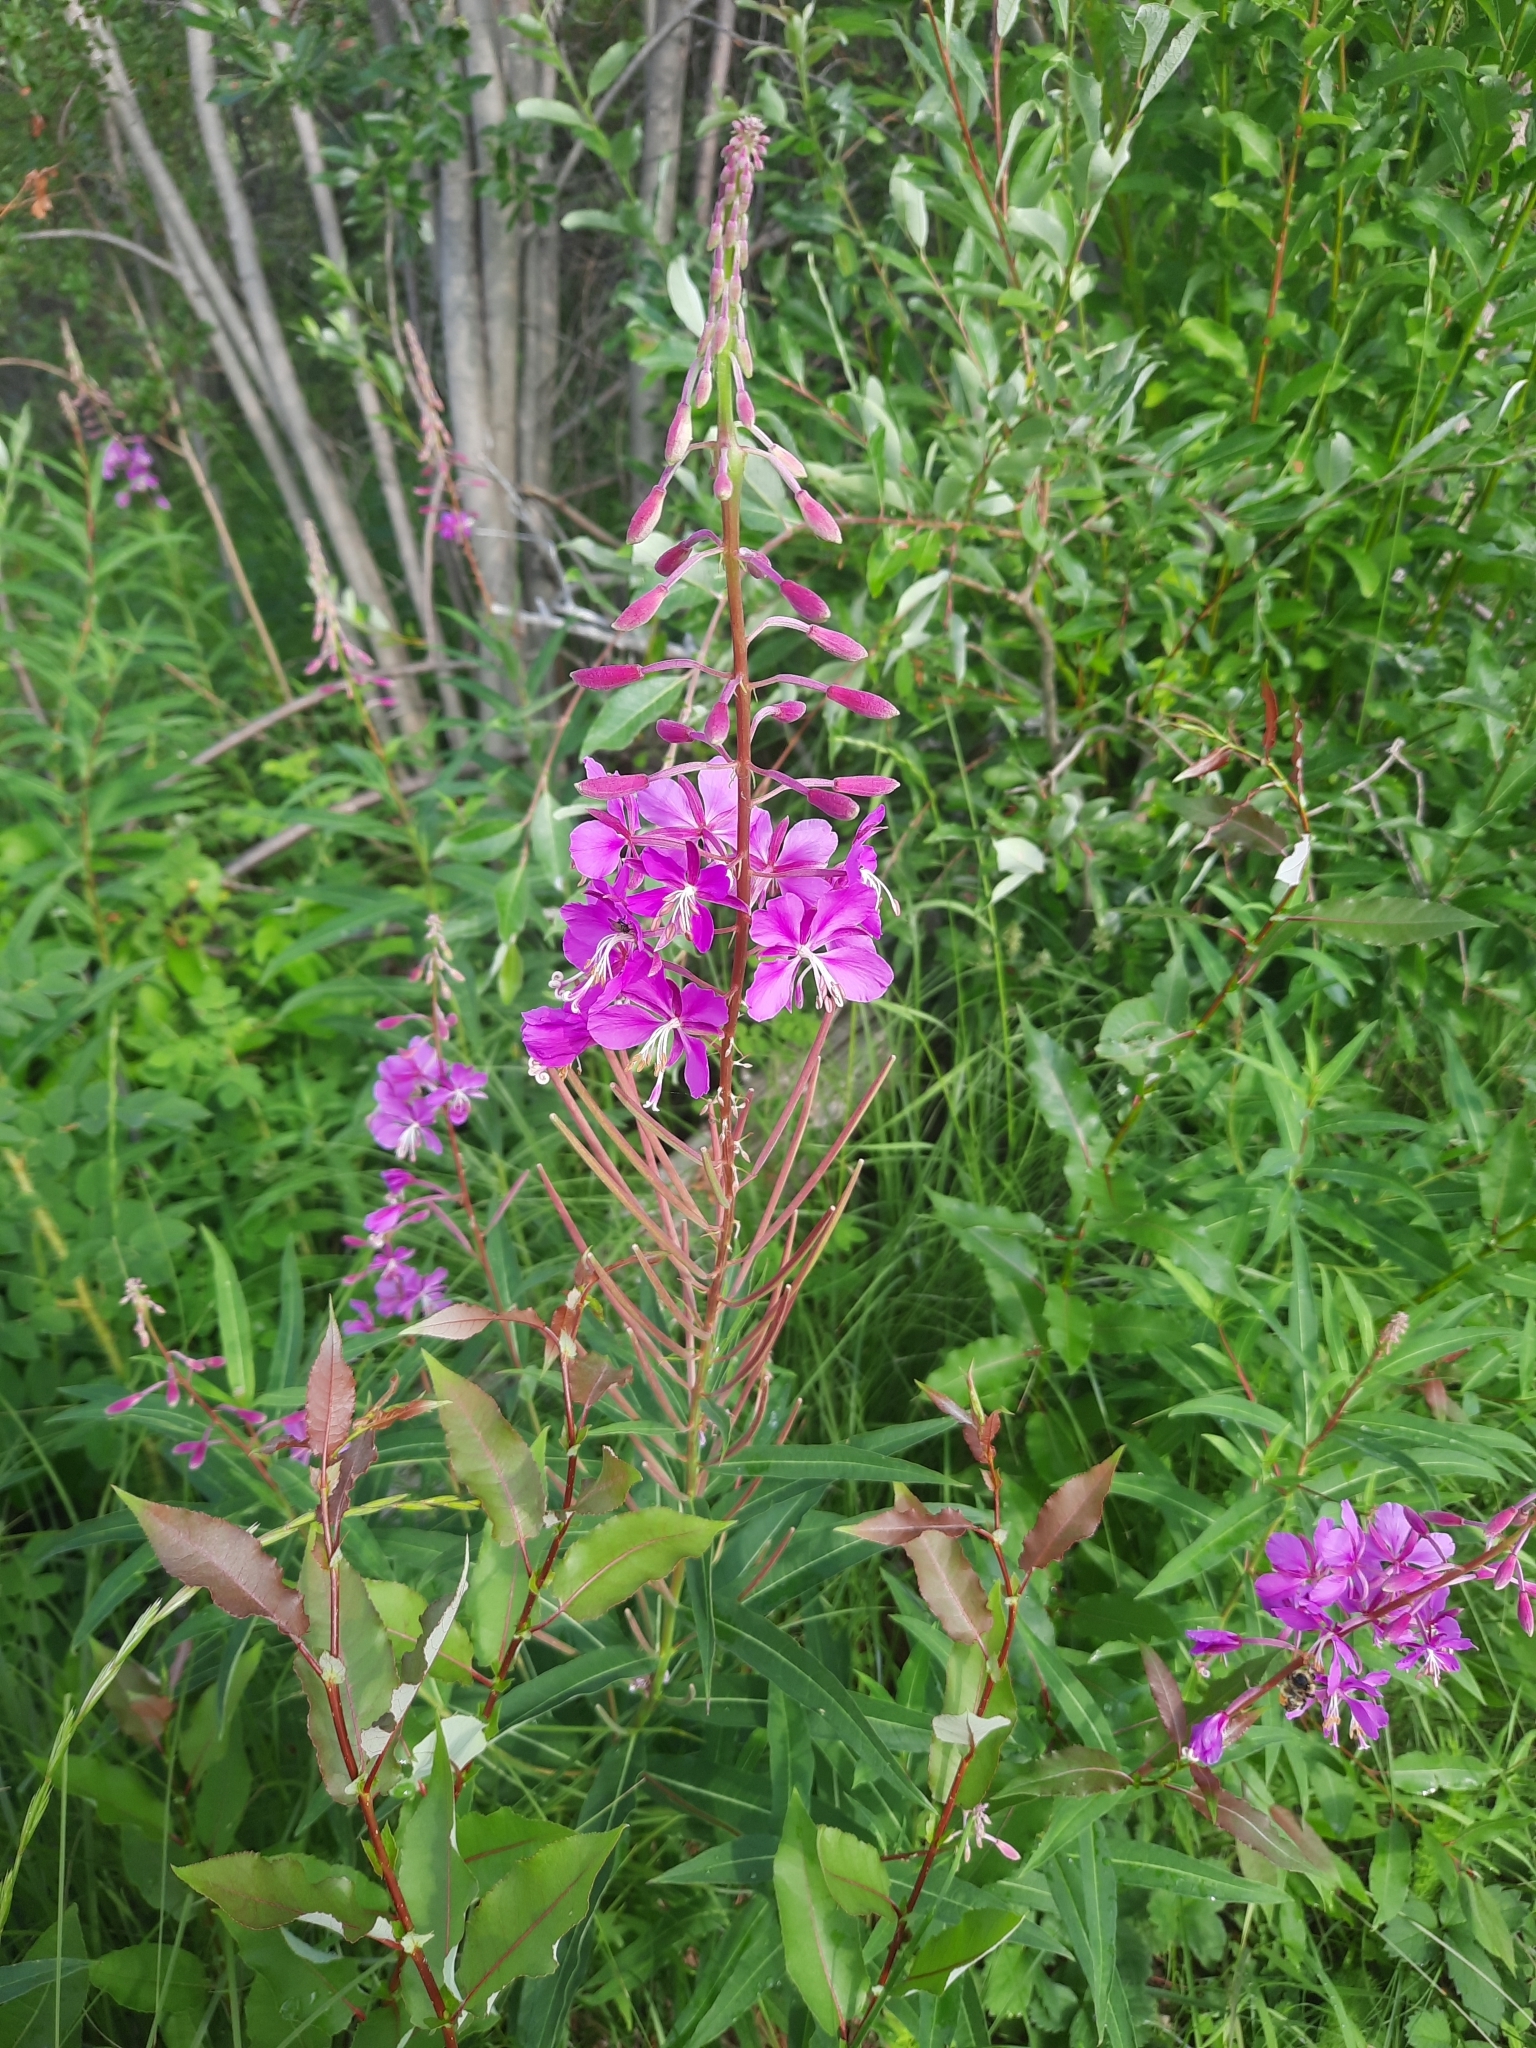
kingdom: Plantae
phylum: Tracheophyta
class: Magnoliopsida
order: Myrtales
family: Onagraceae
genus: Chamaenerion
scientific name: Chamaenerion angustifolium
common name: Fireweed
